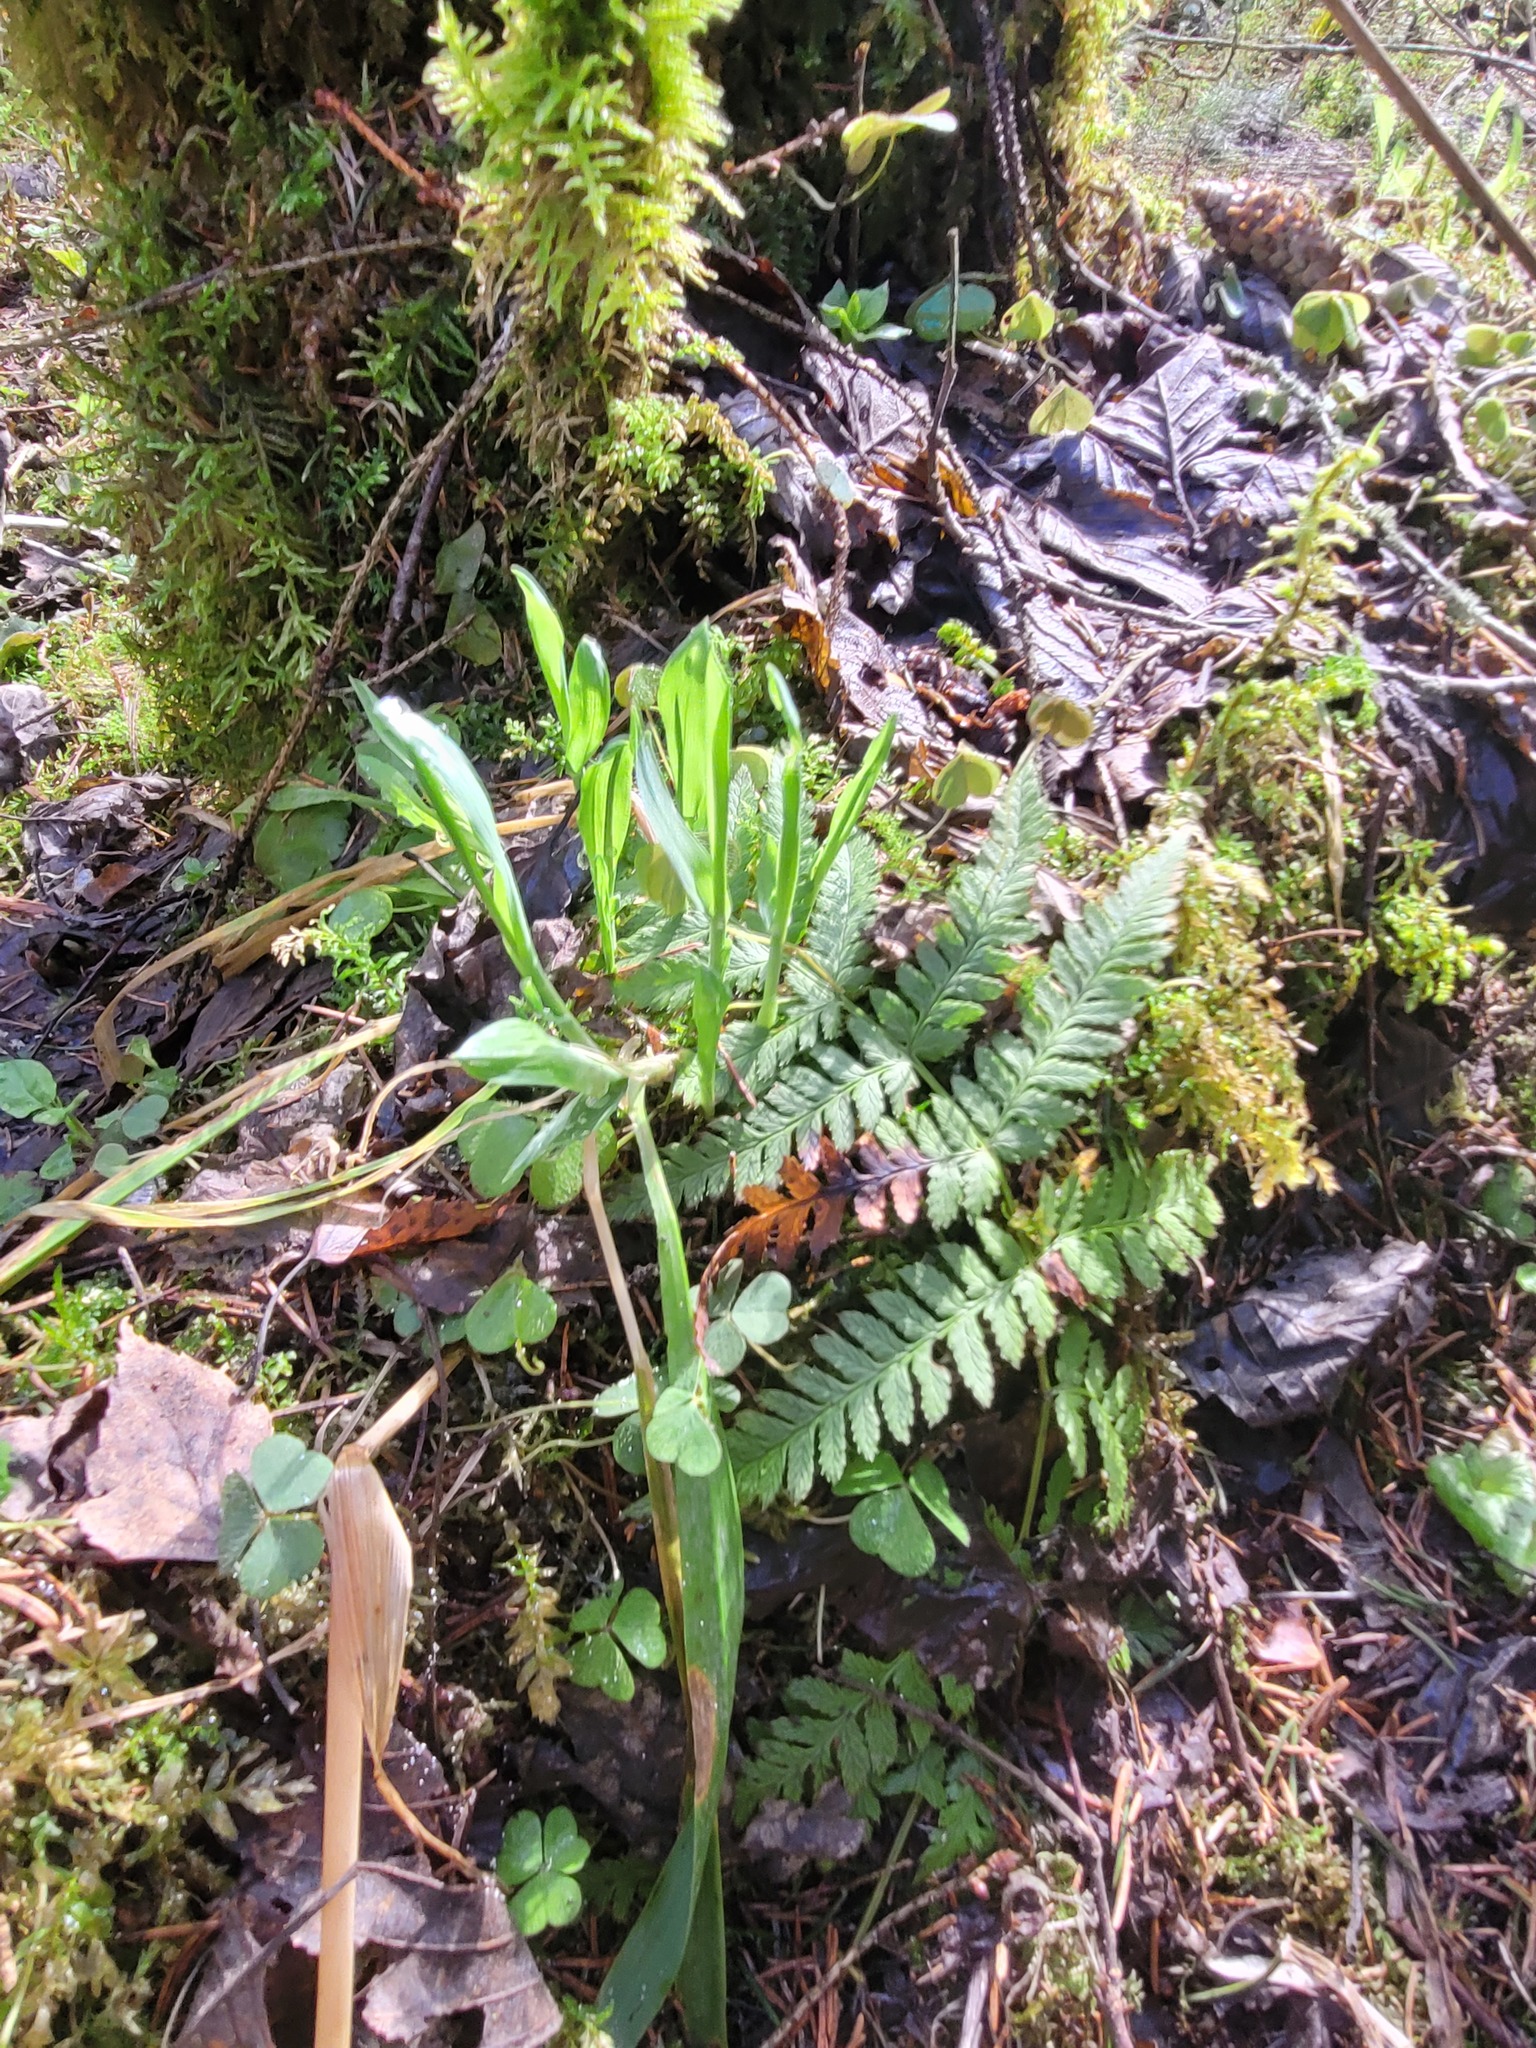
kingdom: Plantae
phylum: Tracheophyta
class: Liliopsida
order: Poales
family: Poaceae
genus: Milium
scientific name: Milium effusum
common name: Wood millet
